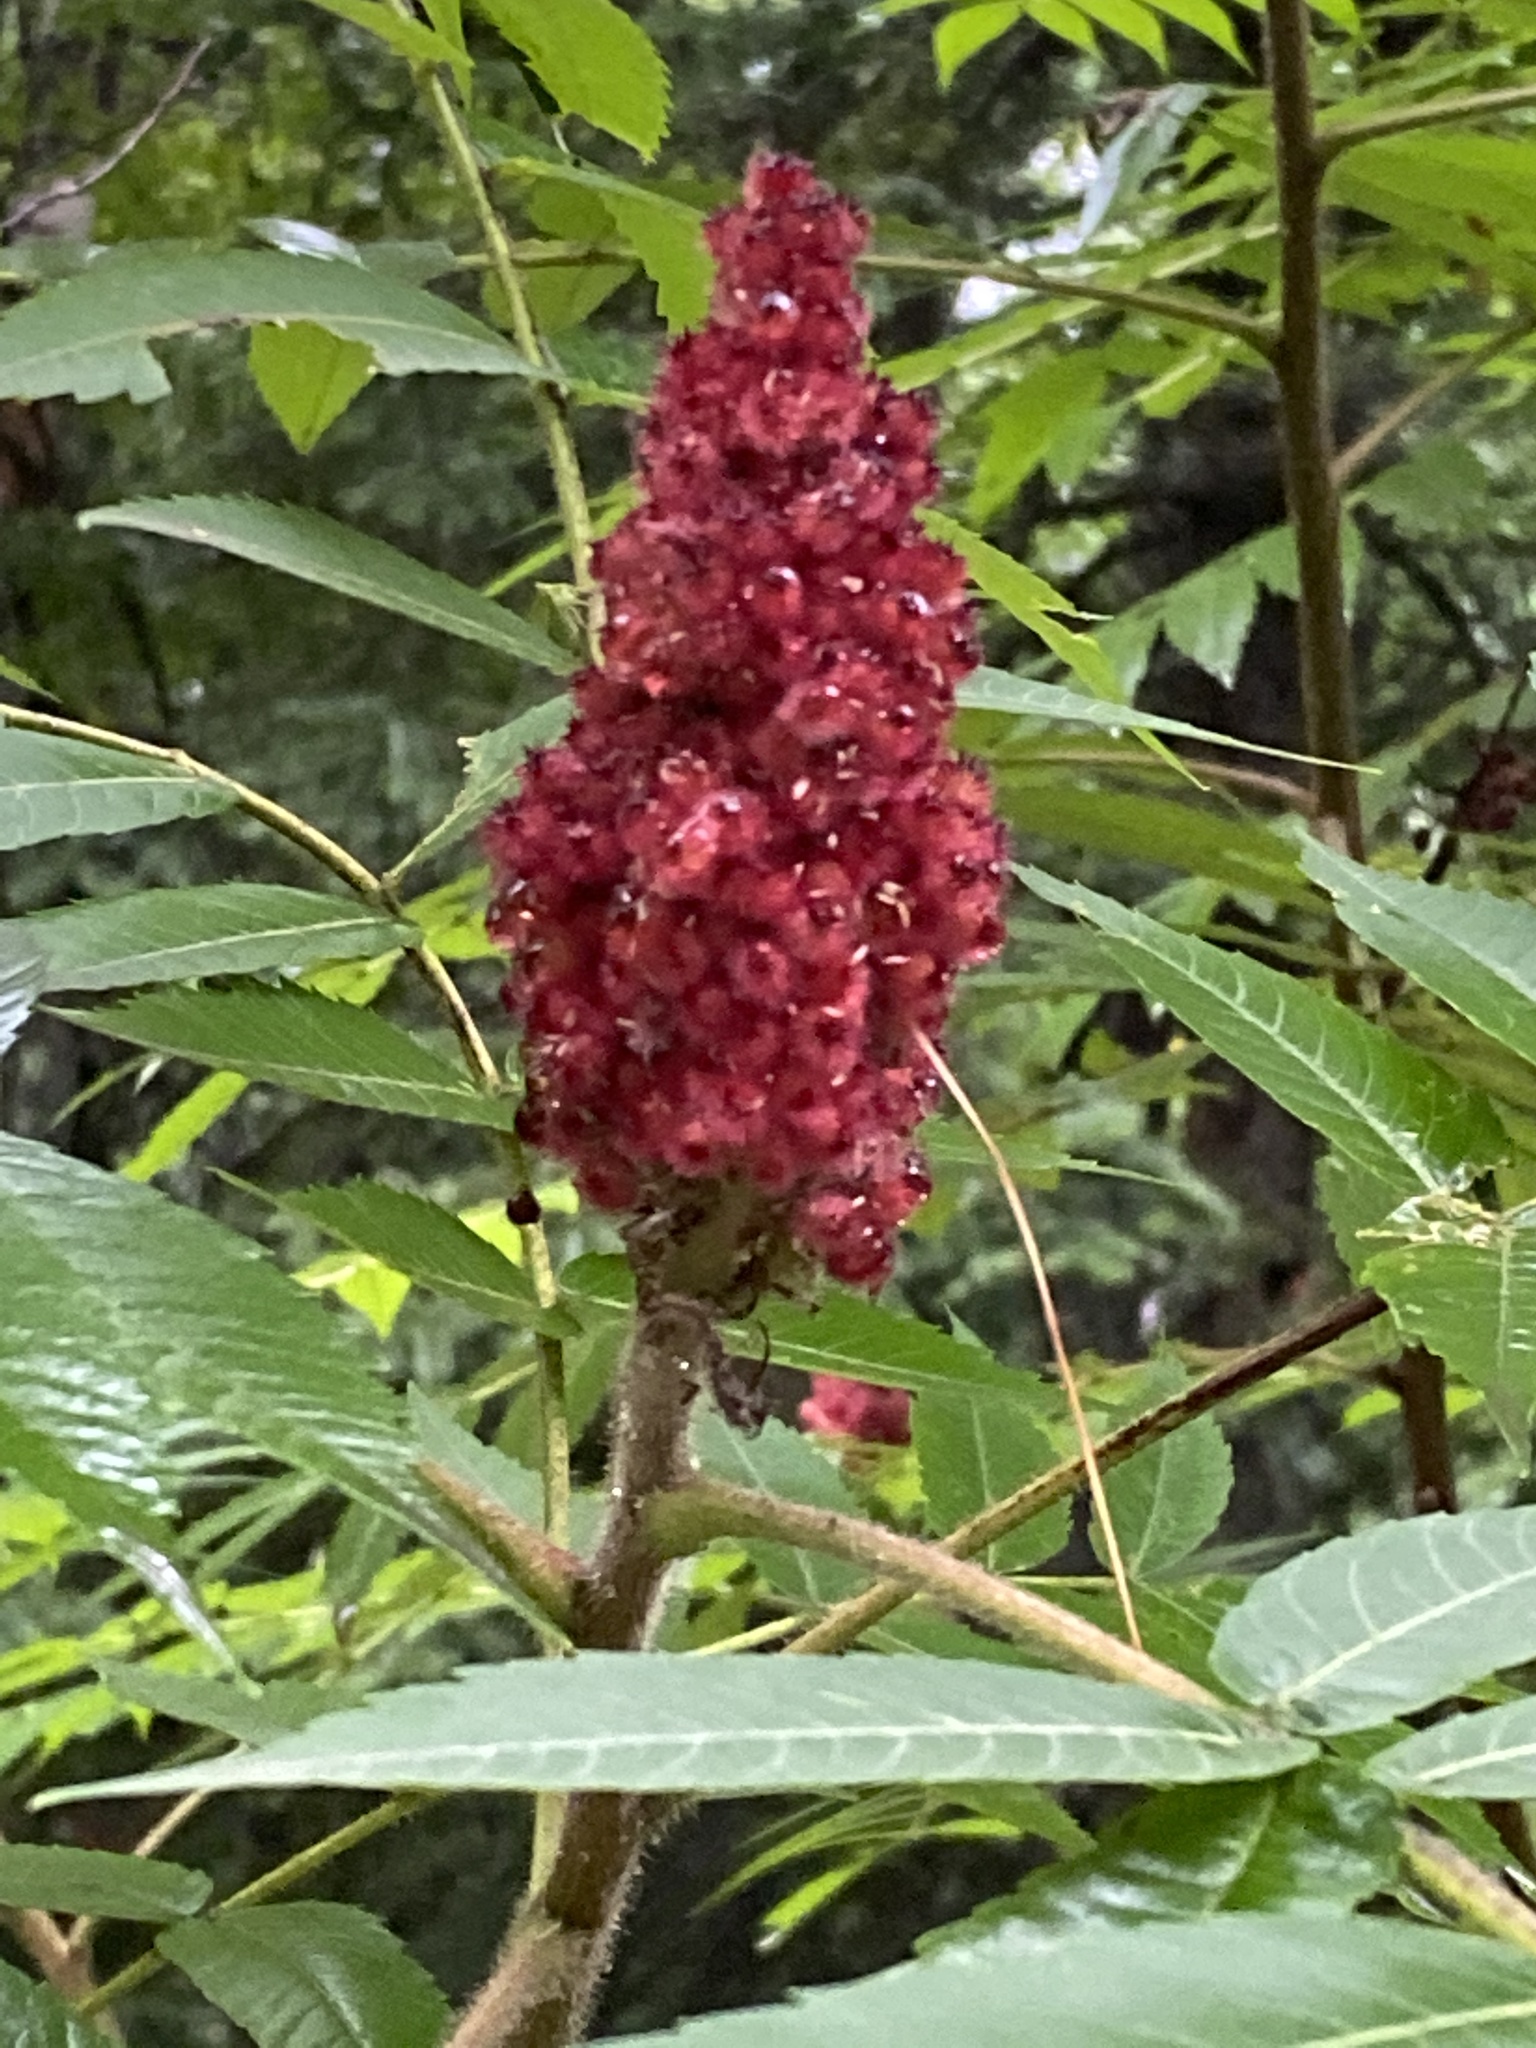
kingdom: Plantae
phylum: Tracheophyta
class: Magnoliopsida
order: Sapindales
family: Anacardiaceae
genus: Rhus
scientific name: Rhus typhina
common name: Staghorn sumac
